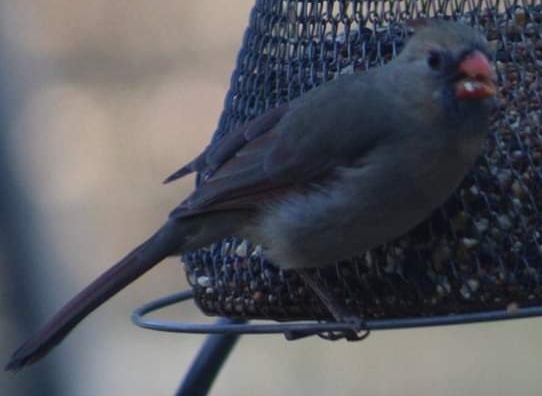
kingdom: Animalia
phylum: Chordata
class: Aves
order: Passeriformes
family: Cardinalidae
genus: Cardinalis
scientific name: Cardinalis cardinalis
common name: Northern cardinal
